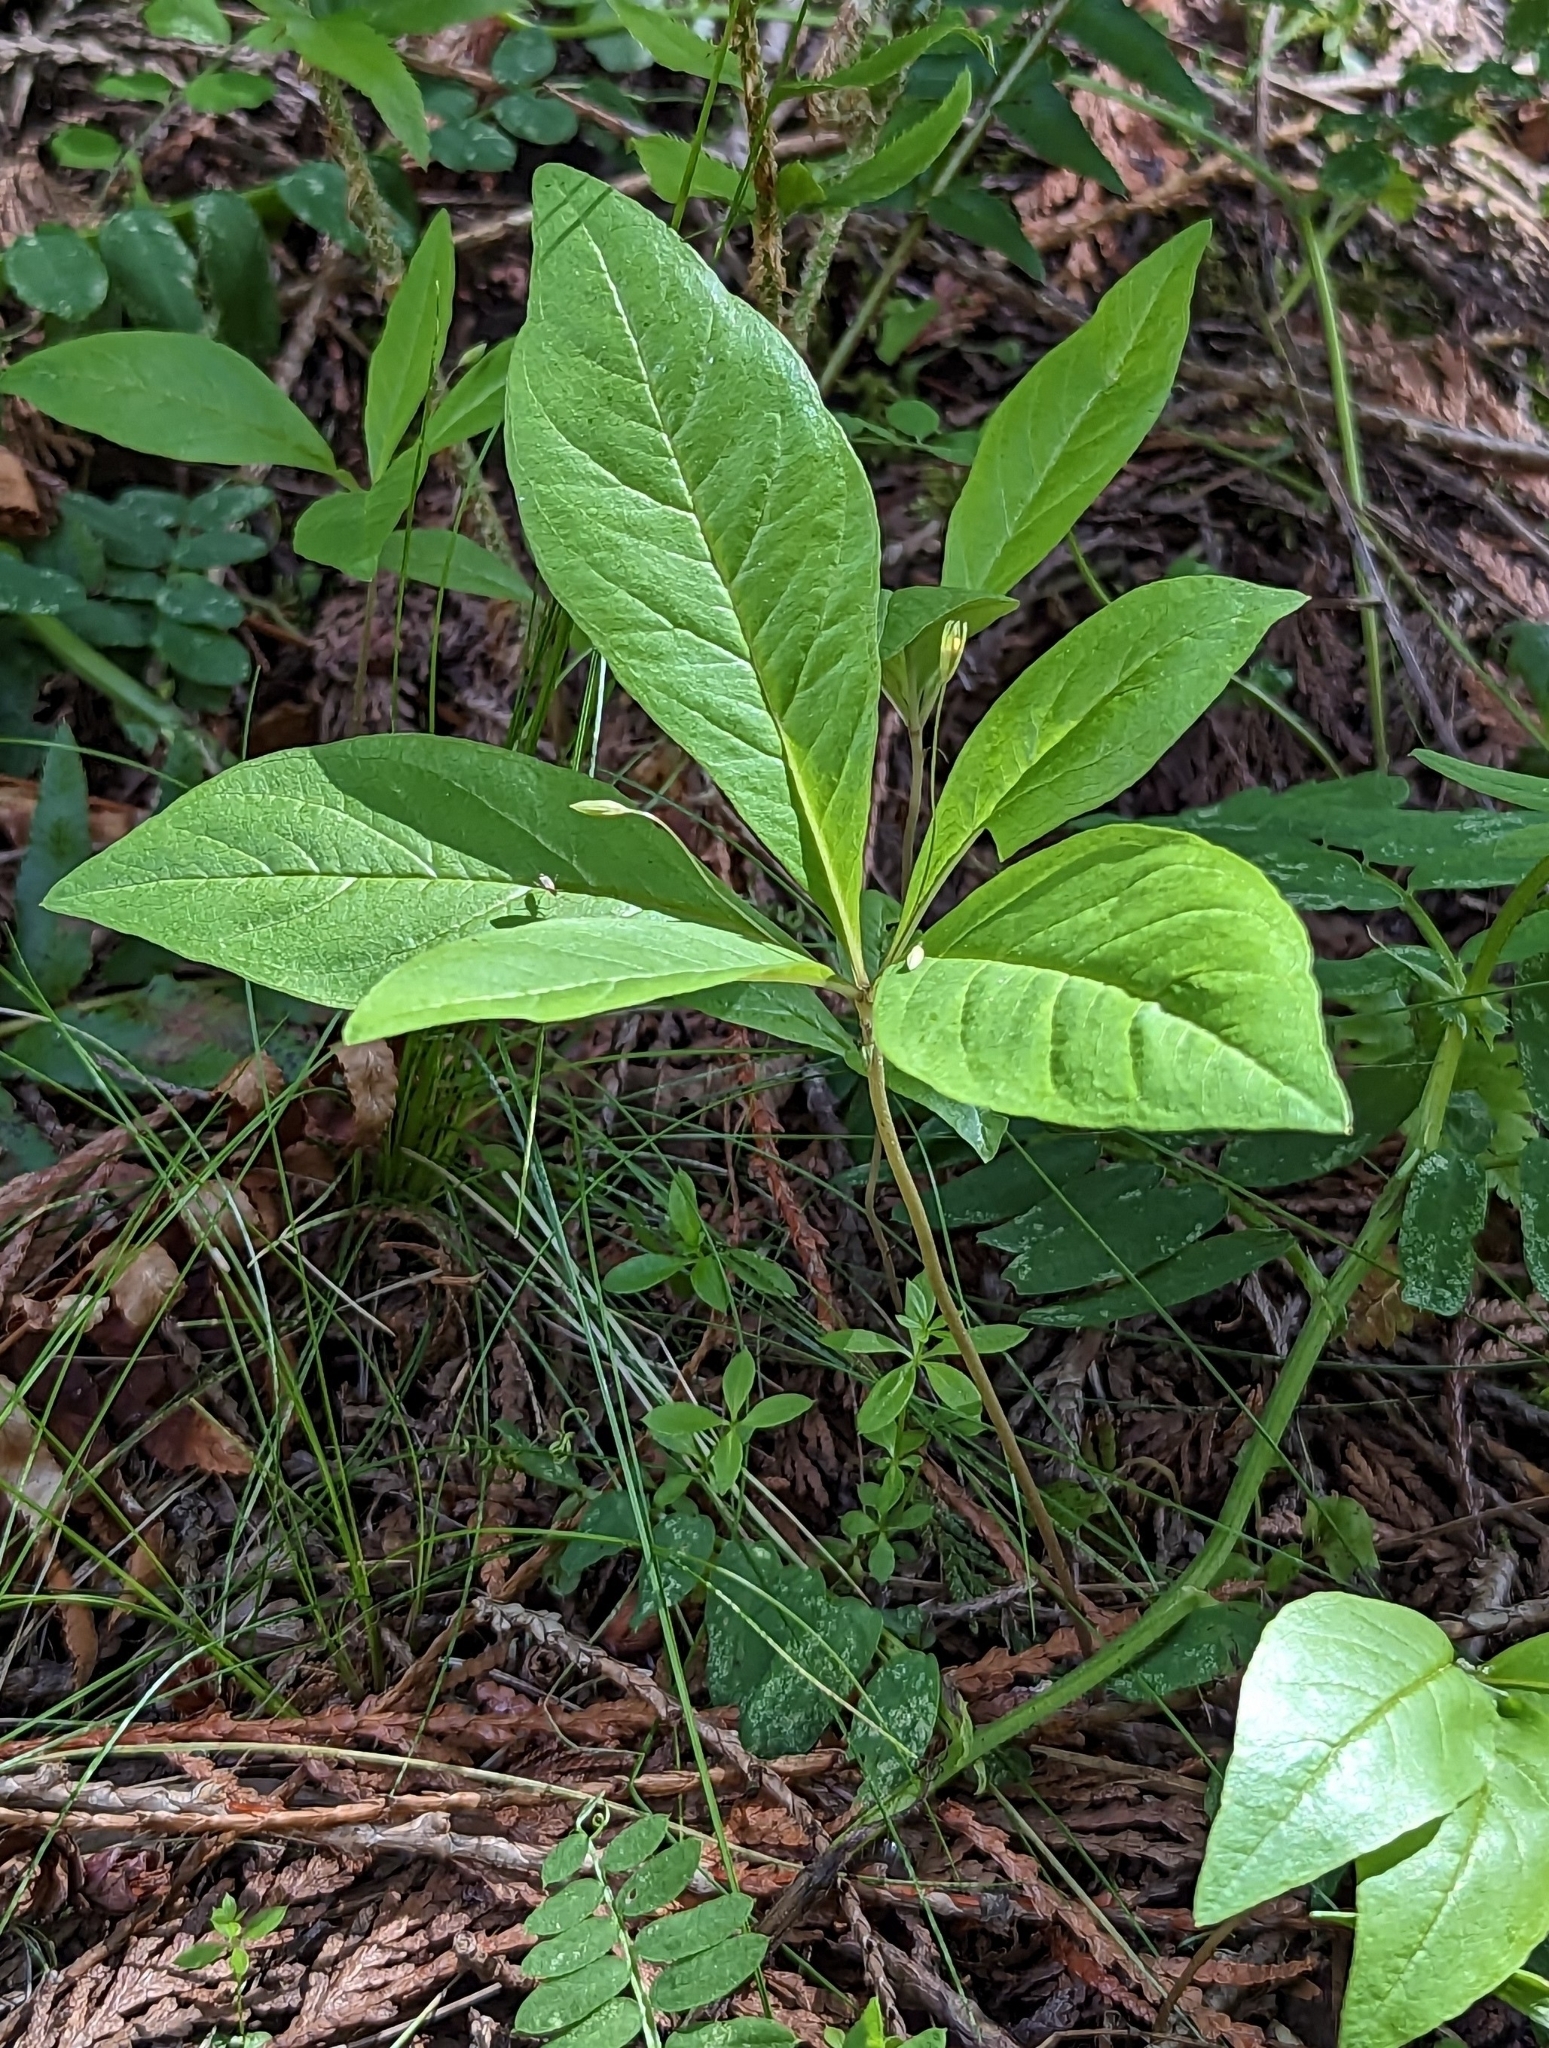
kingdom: Plantae
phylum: Tracheophyta
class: Magnoliopsida
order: Ericales
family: Primulaceae
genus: Lysimachia
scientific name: Lysimachia latifolia
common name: Pacific starflower
